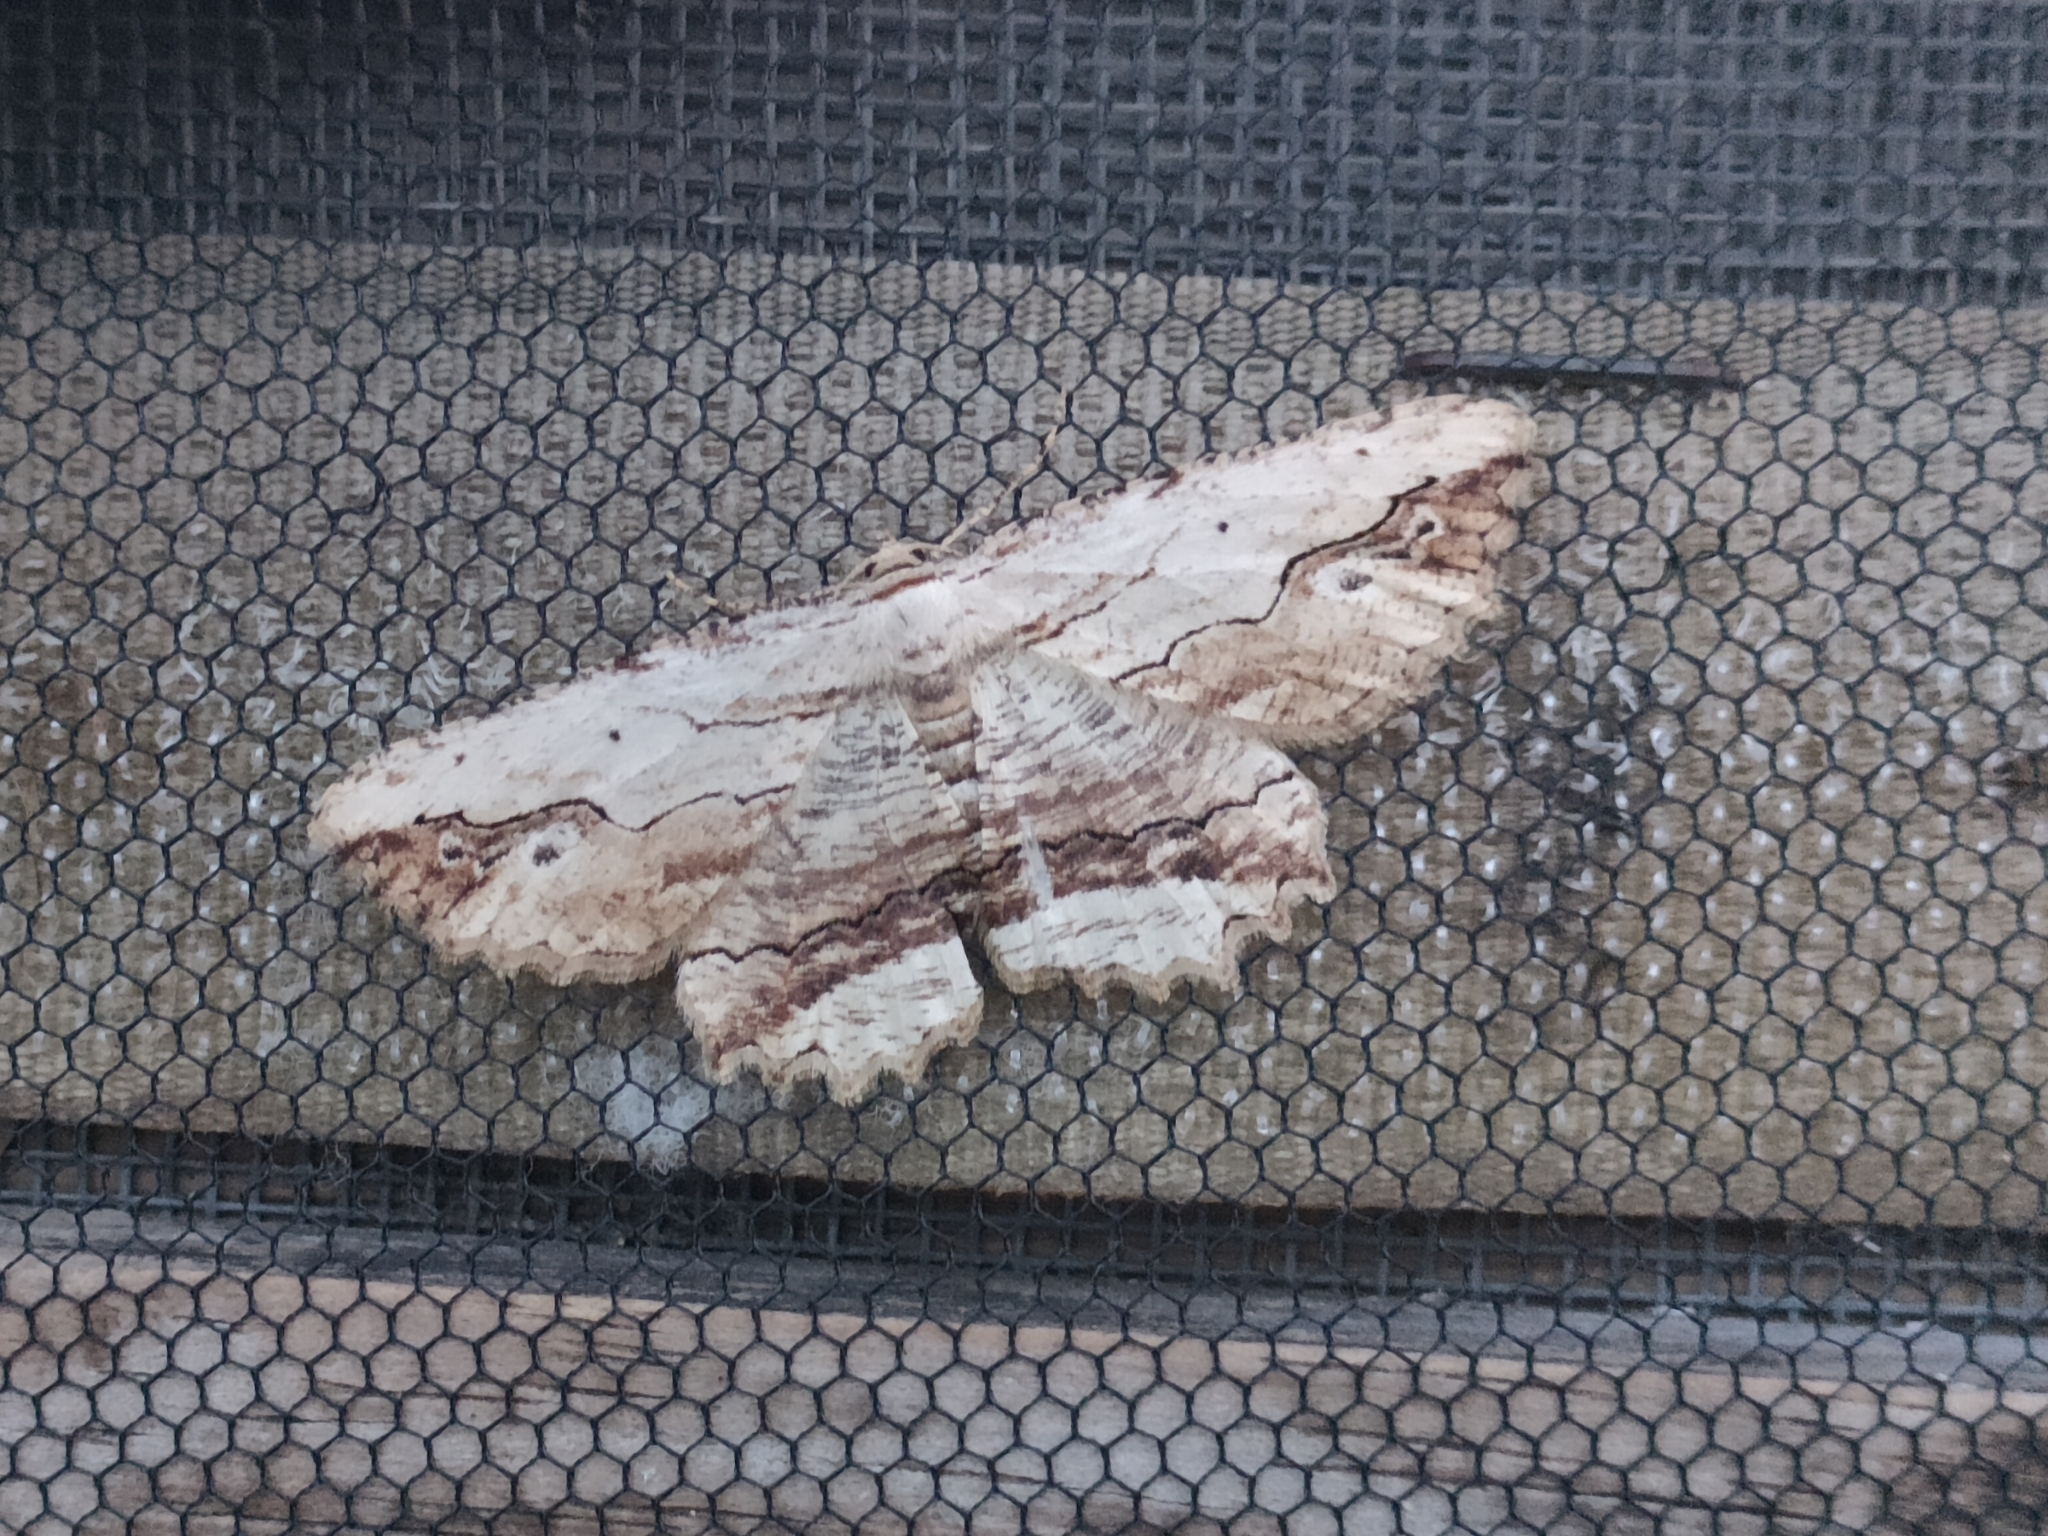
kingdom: Animalia
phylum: Arthropoda
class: Insecta
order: Lepidoptera
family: Geometridae
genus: Menophra
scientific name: Menophra abruptaria
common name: Waved umber
